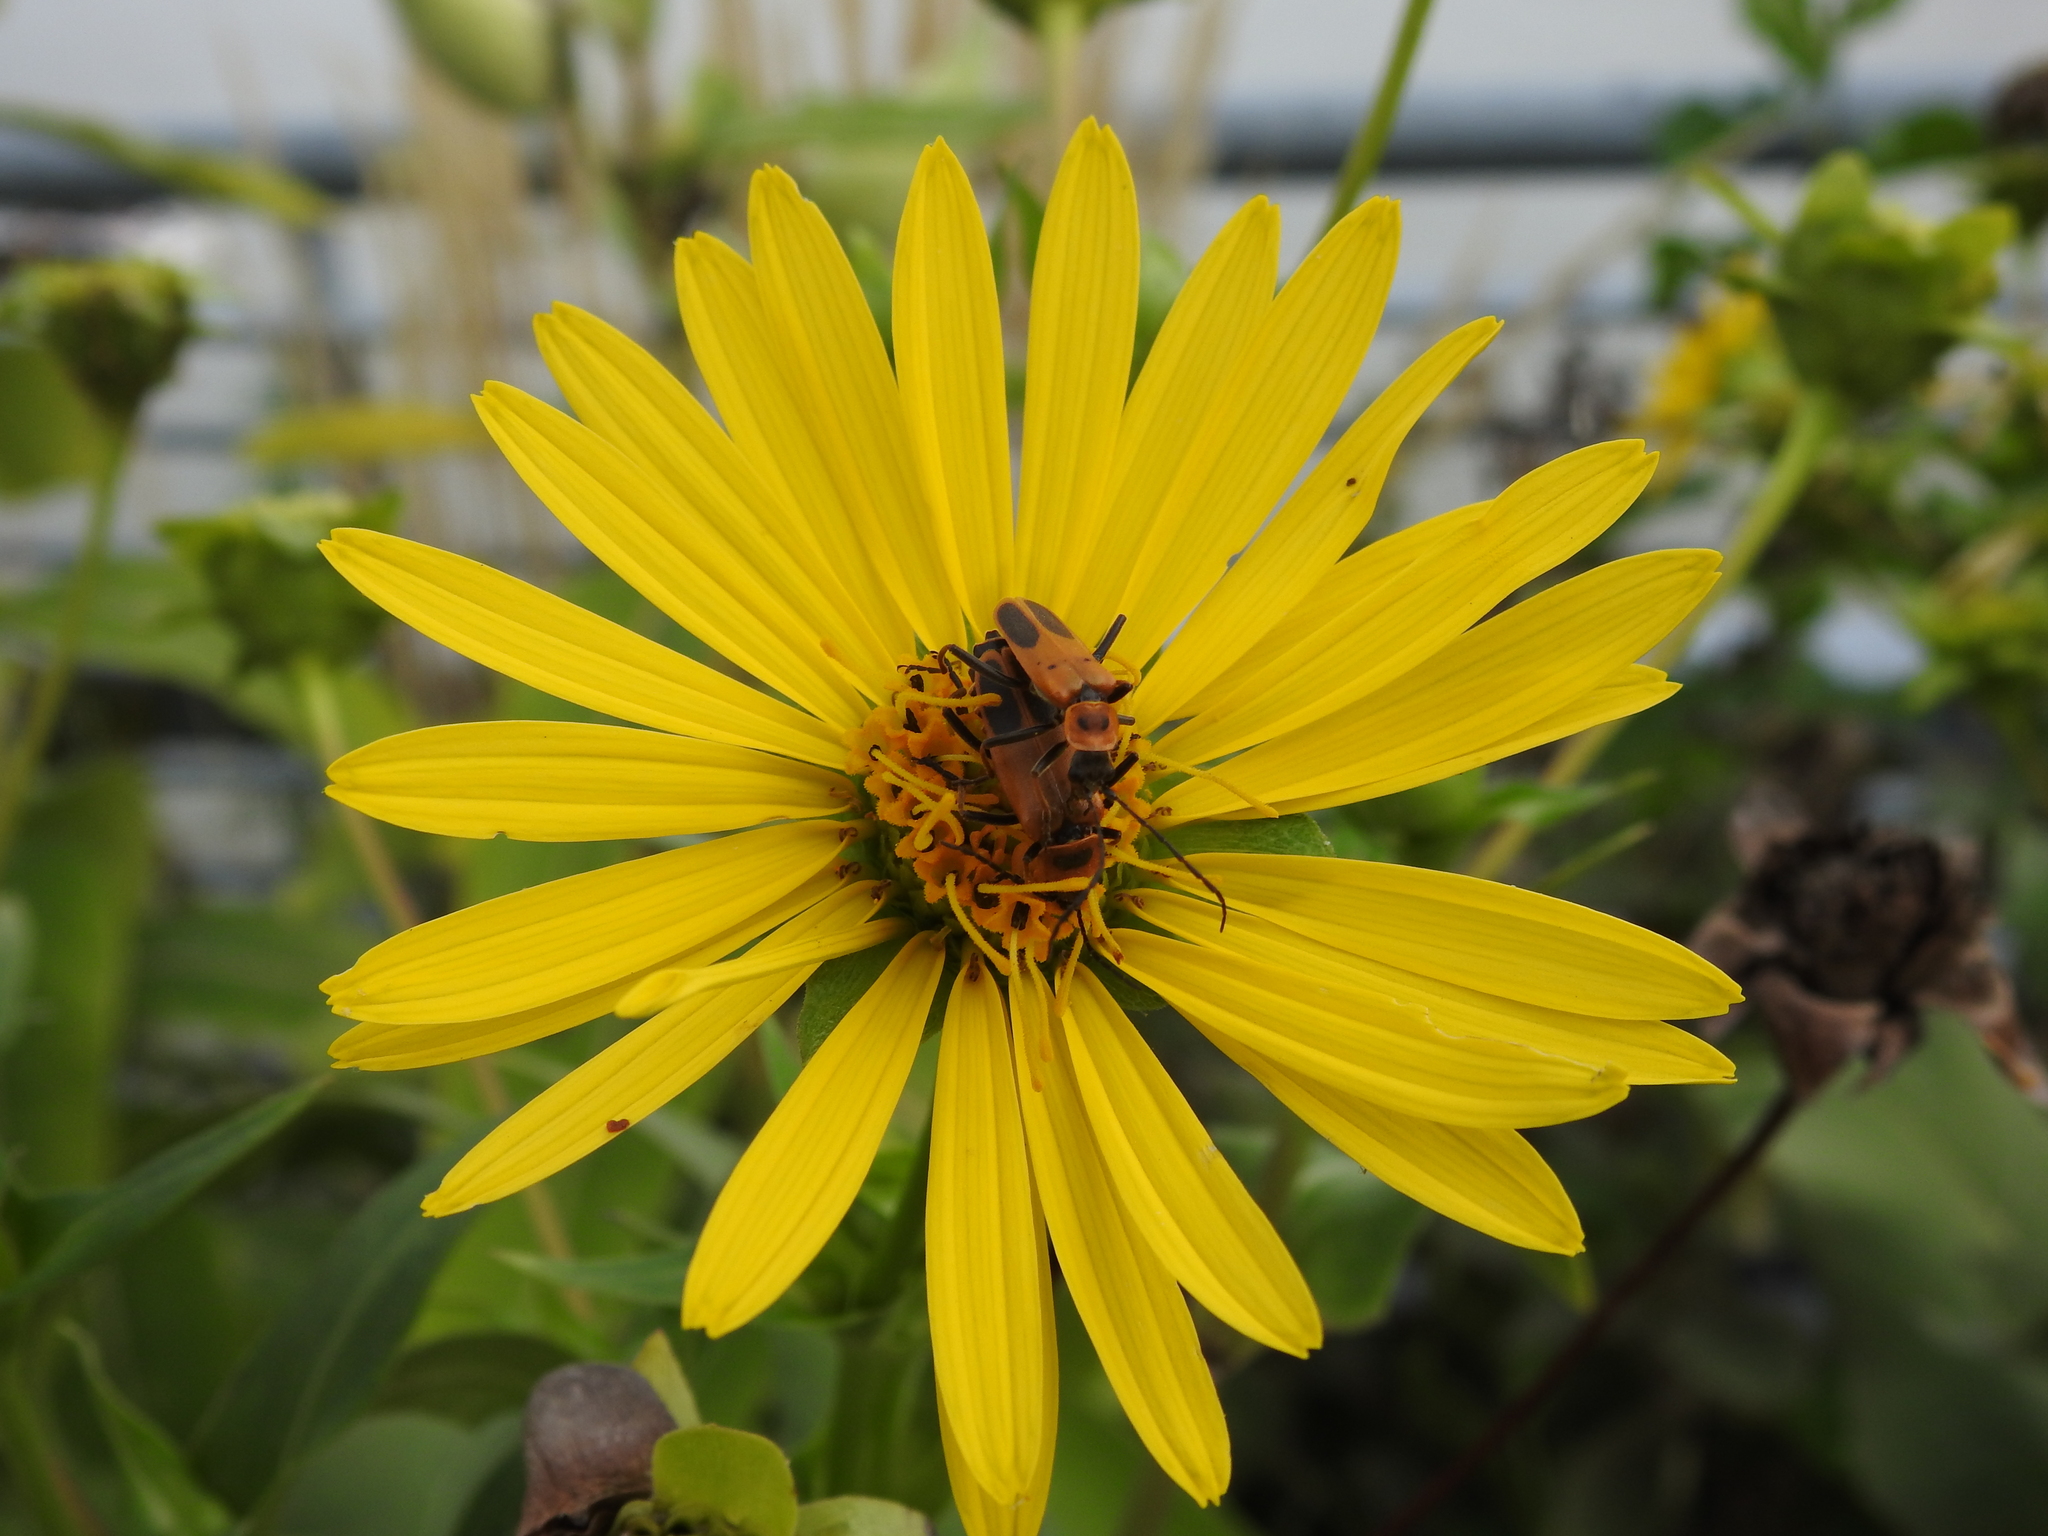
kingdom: Animalia
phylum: Arthropoda
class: Insecta
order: Coleoptera
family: Cantharidae
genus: Chauliognathus
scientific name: Chauliognathus pensylvanicus
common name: Goldenrod soldier beetle
